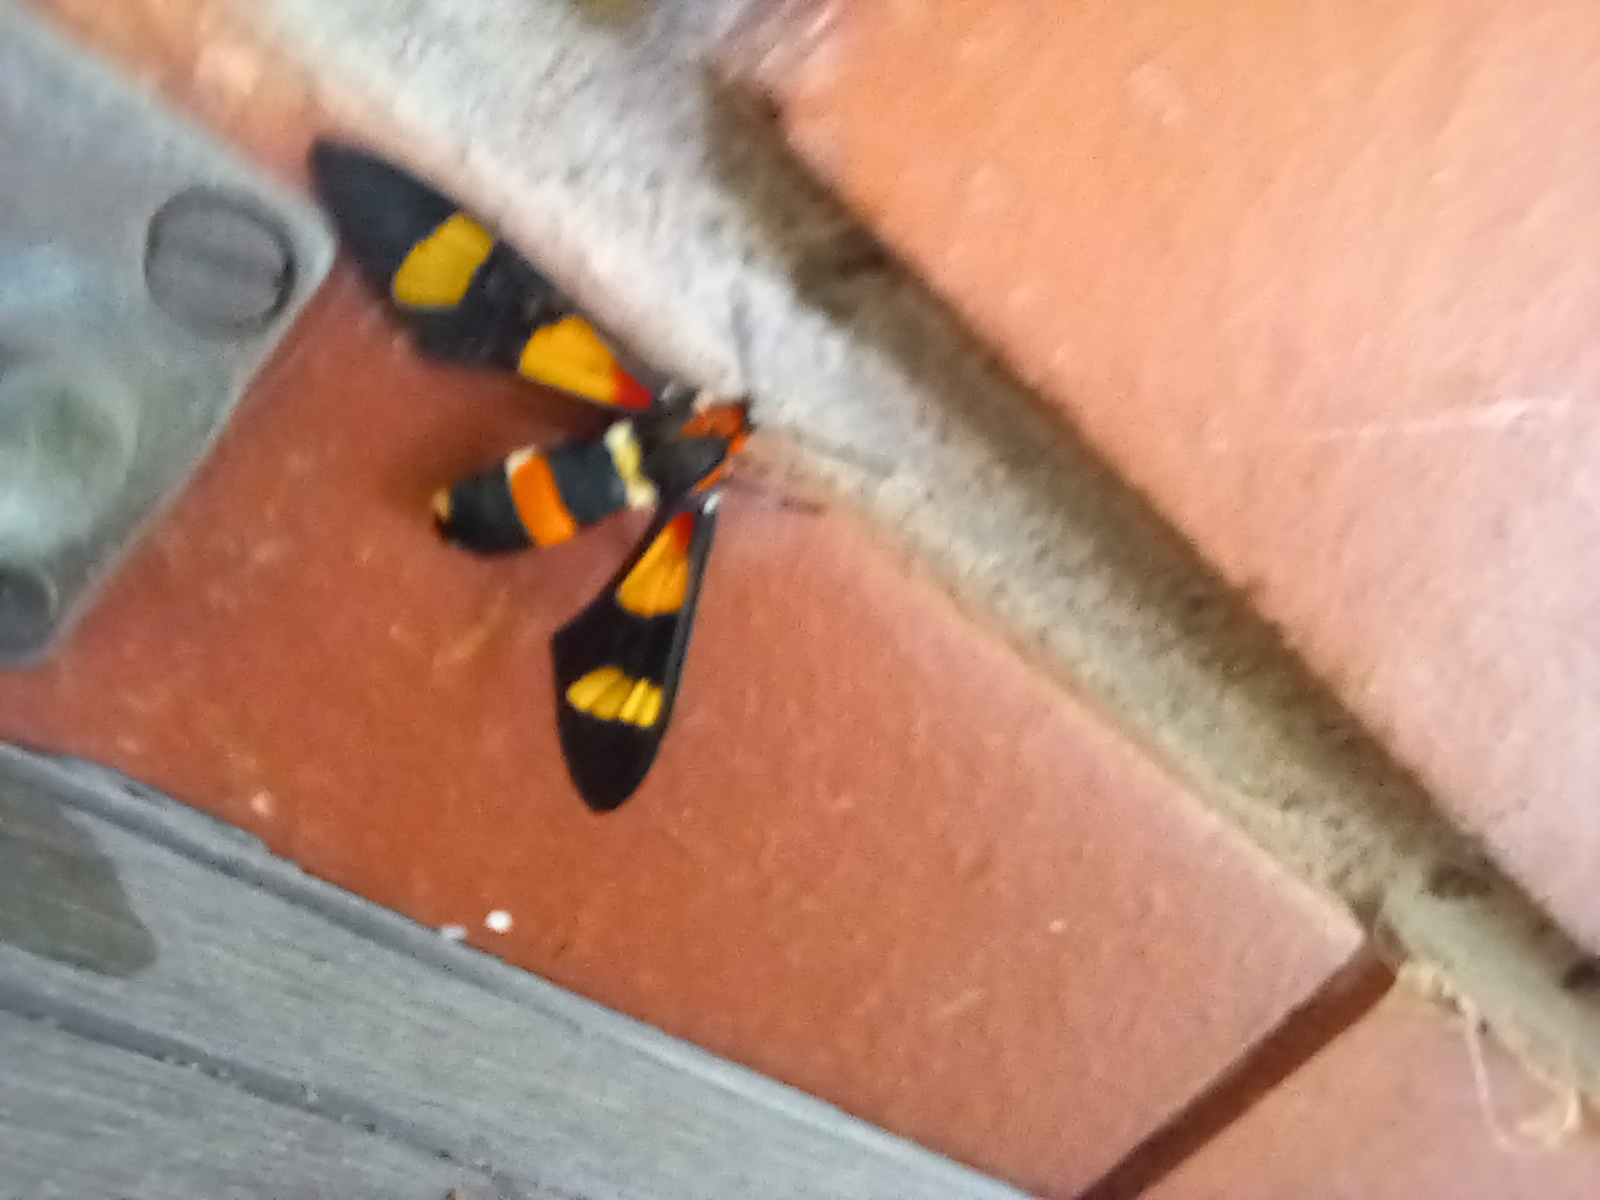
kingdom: Animalia
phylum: Arthropoda
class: Insecta
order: Lepidoptera
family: Erebidae
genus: Euchromia
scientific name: Euchromia amoena
